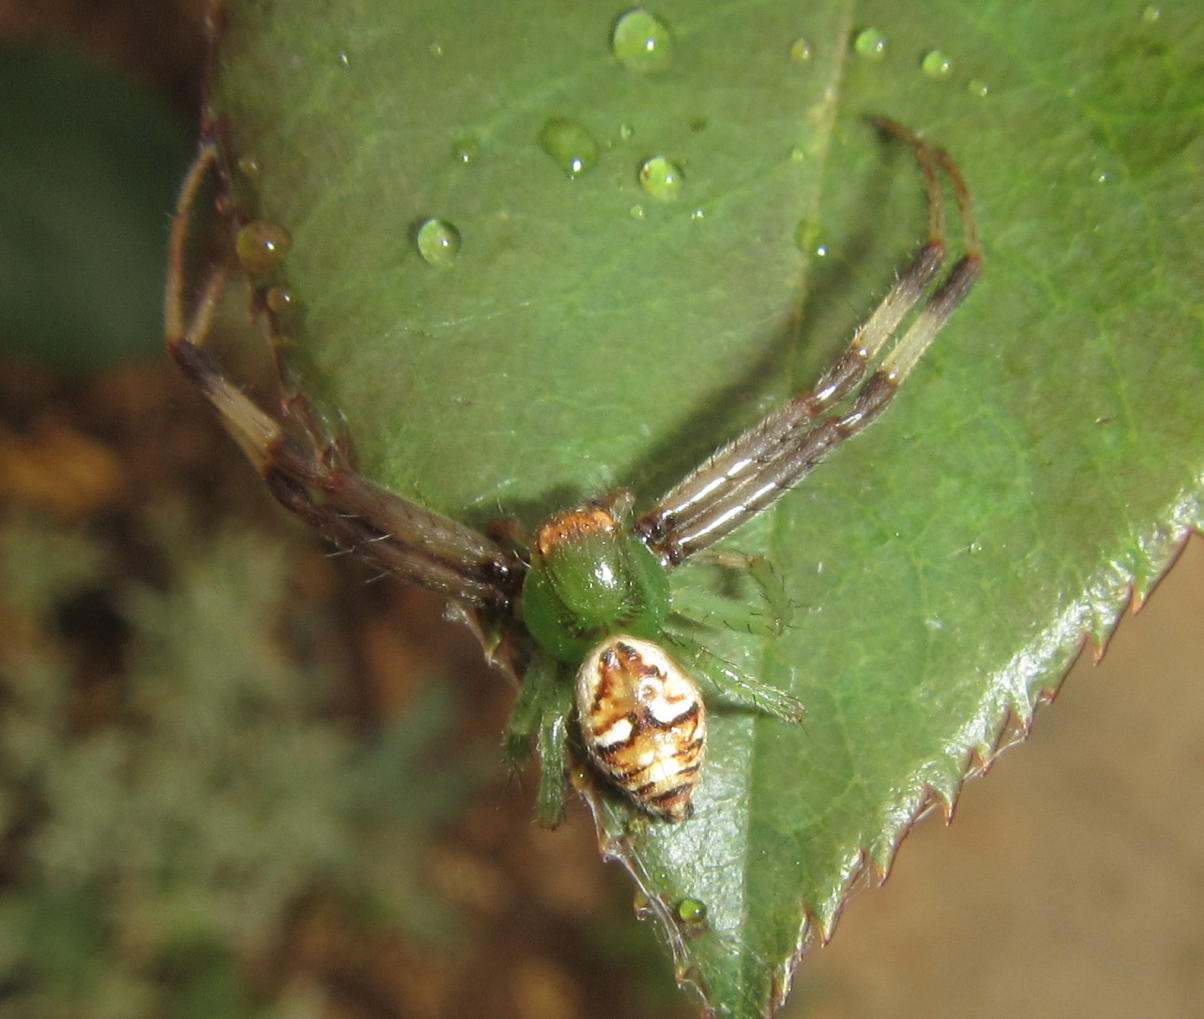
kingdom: Animalia
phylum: Arthropoda
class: Arachnida
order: Araneae
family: Thomisidae
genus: Synema
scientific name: Synema imitatrix
